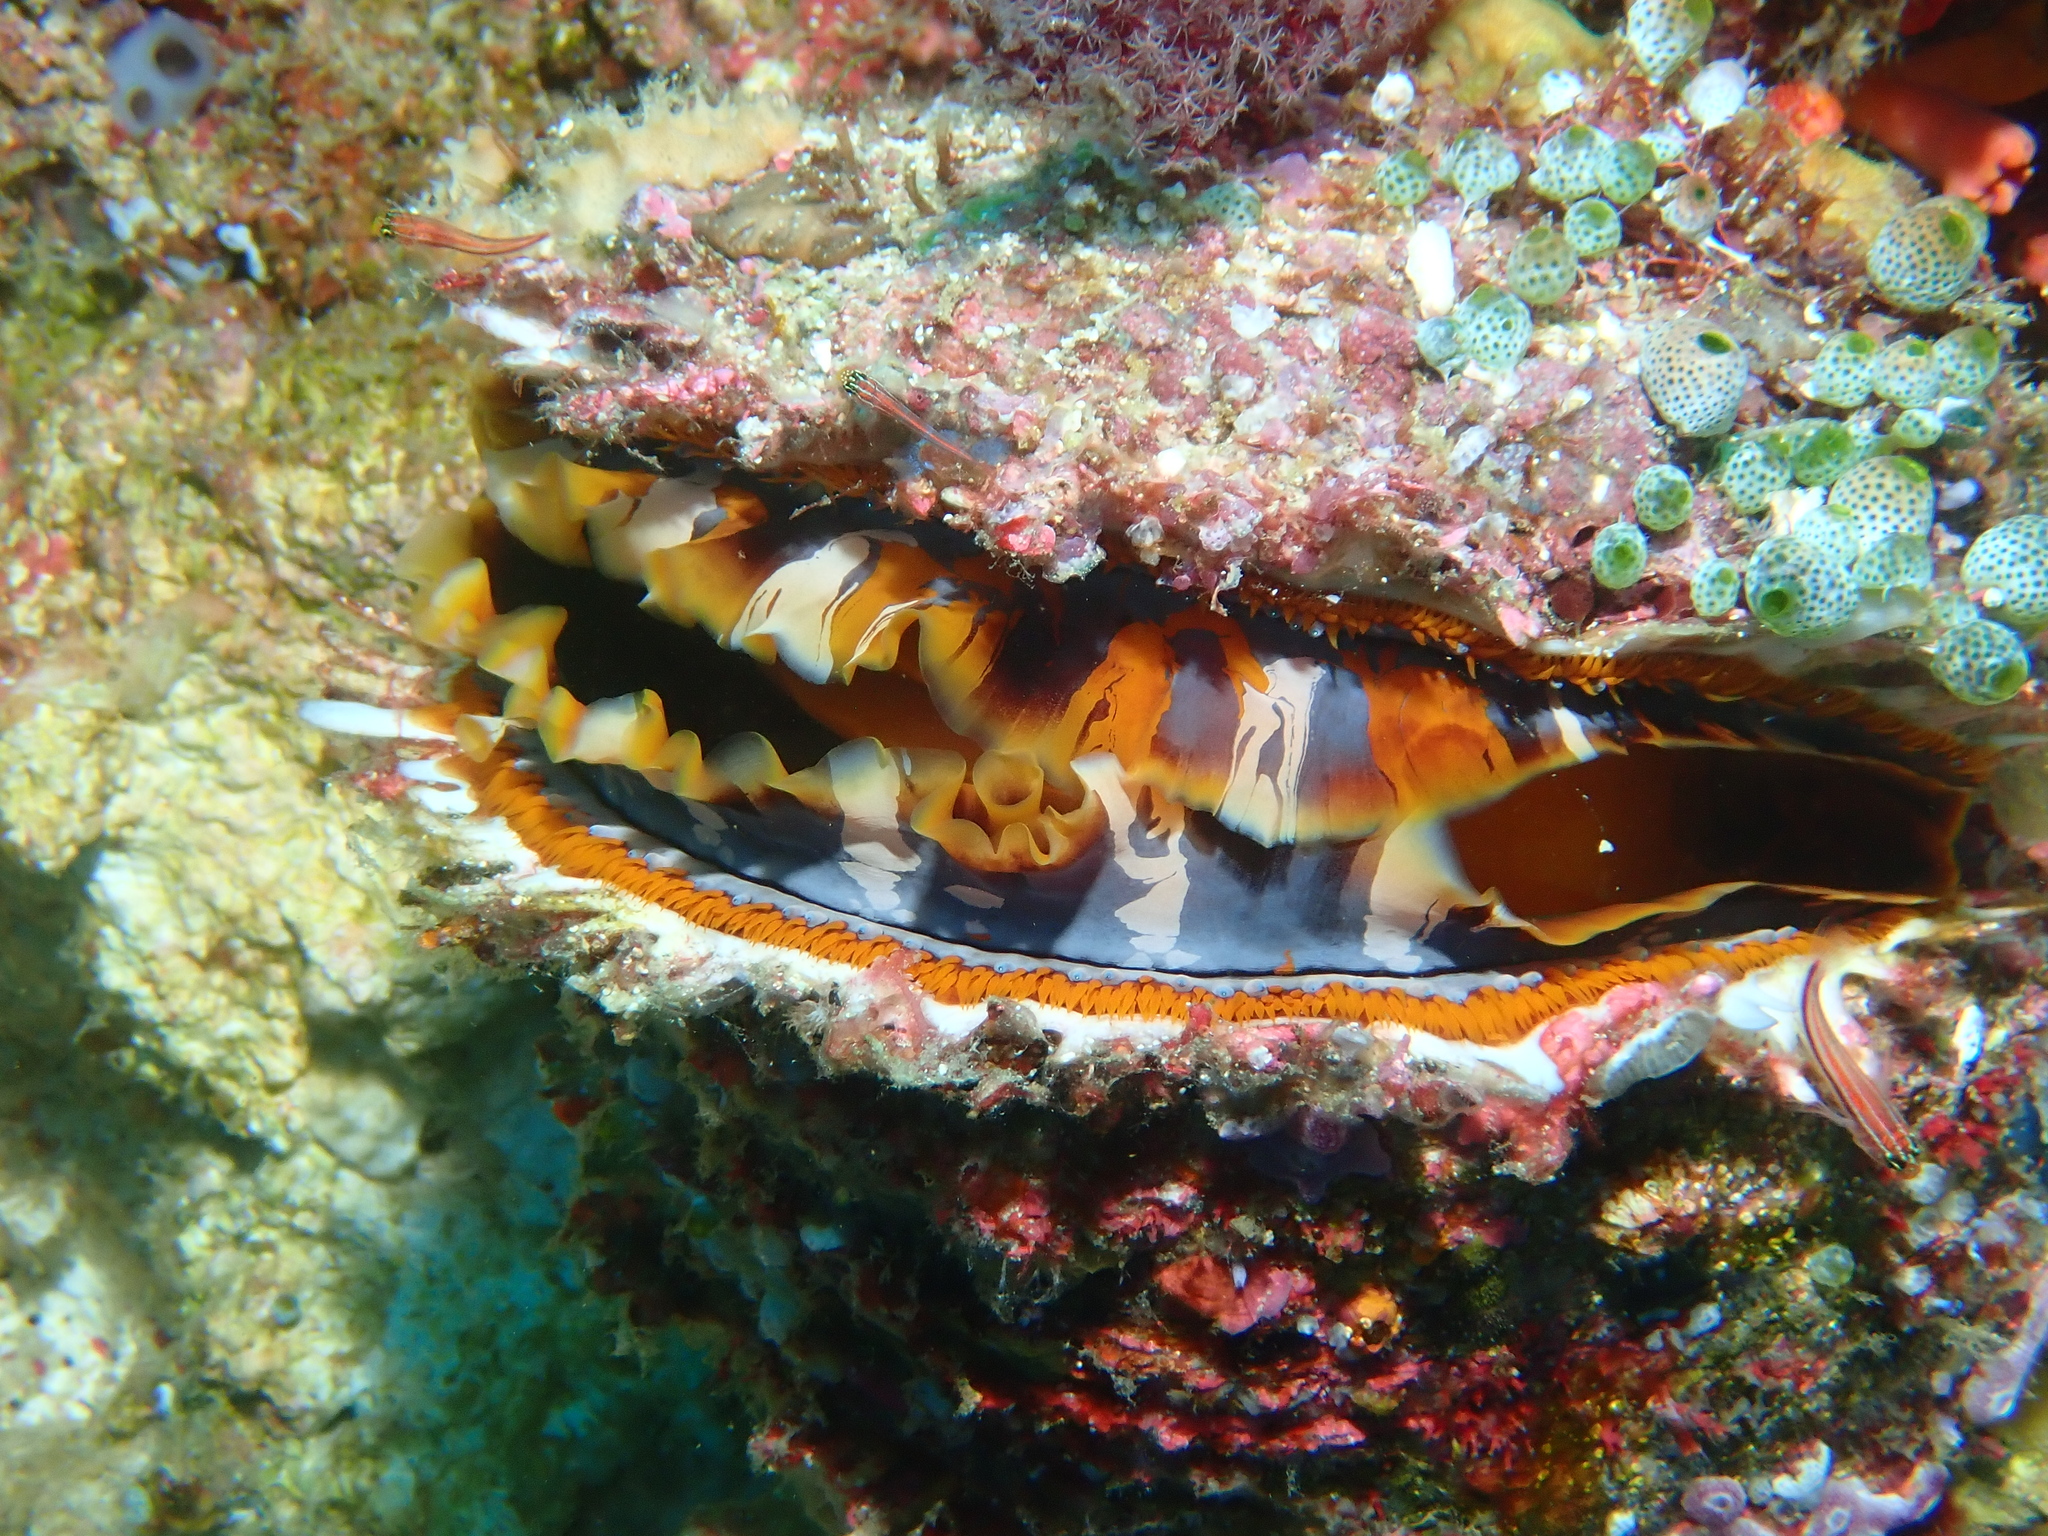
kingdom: Animalia
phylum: Mollusca
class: Bivalvia
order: Pectinida
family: Spondylidae
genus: Spondylus
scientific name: Spondylus varius
